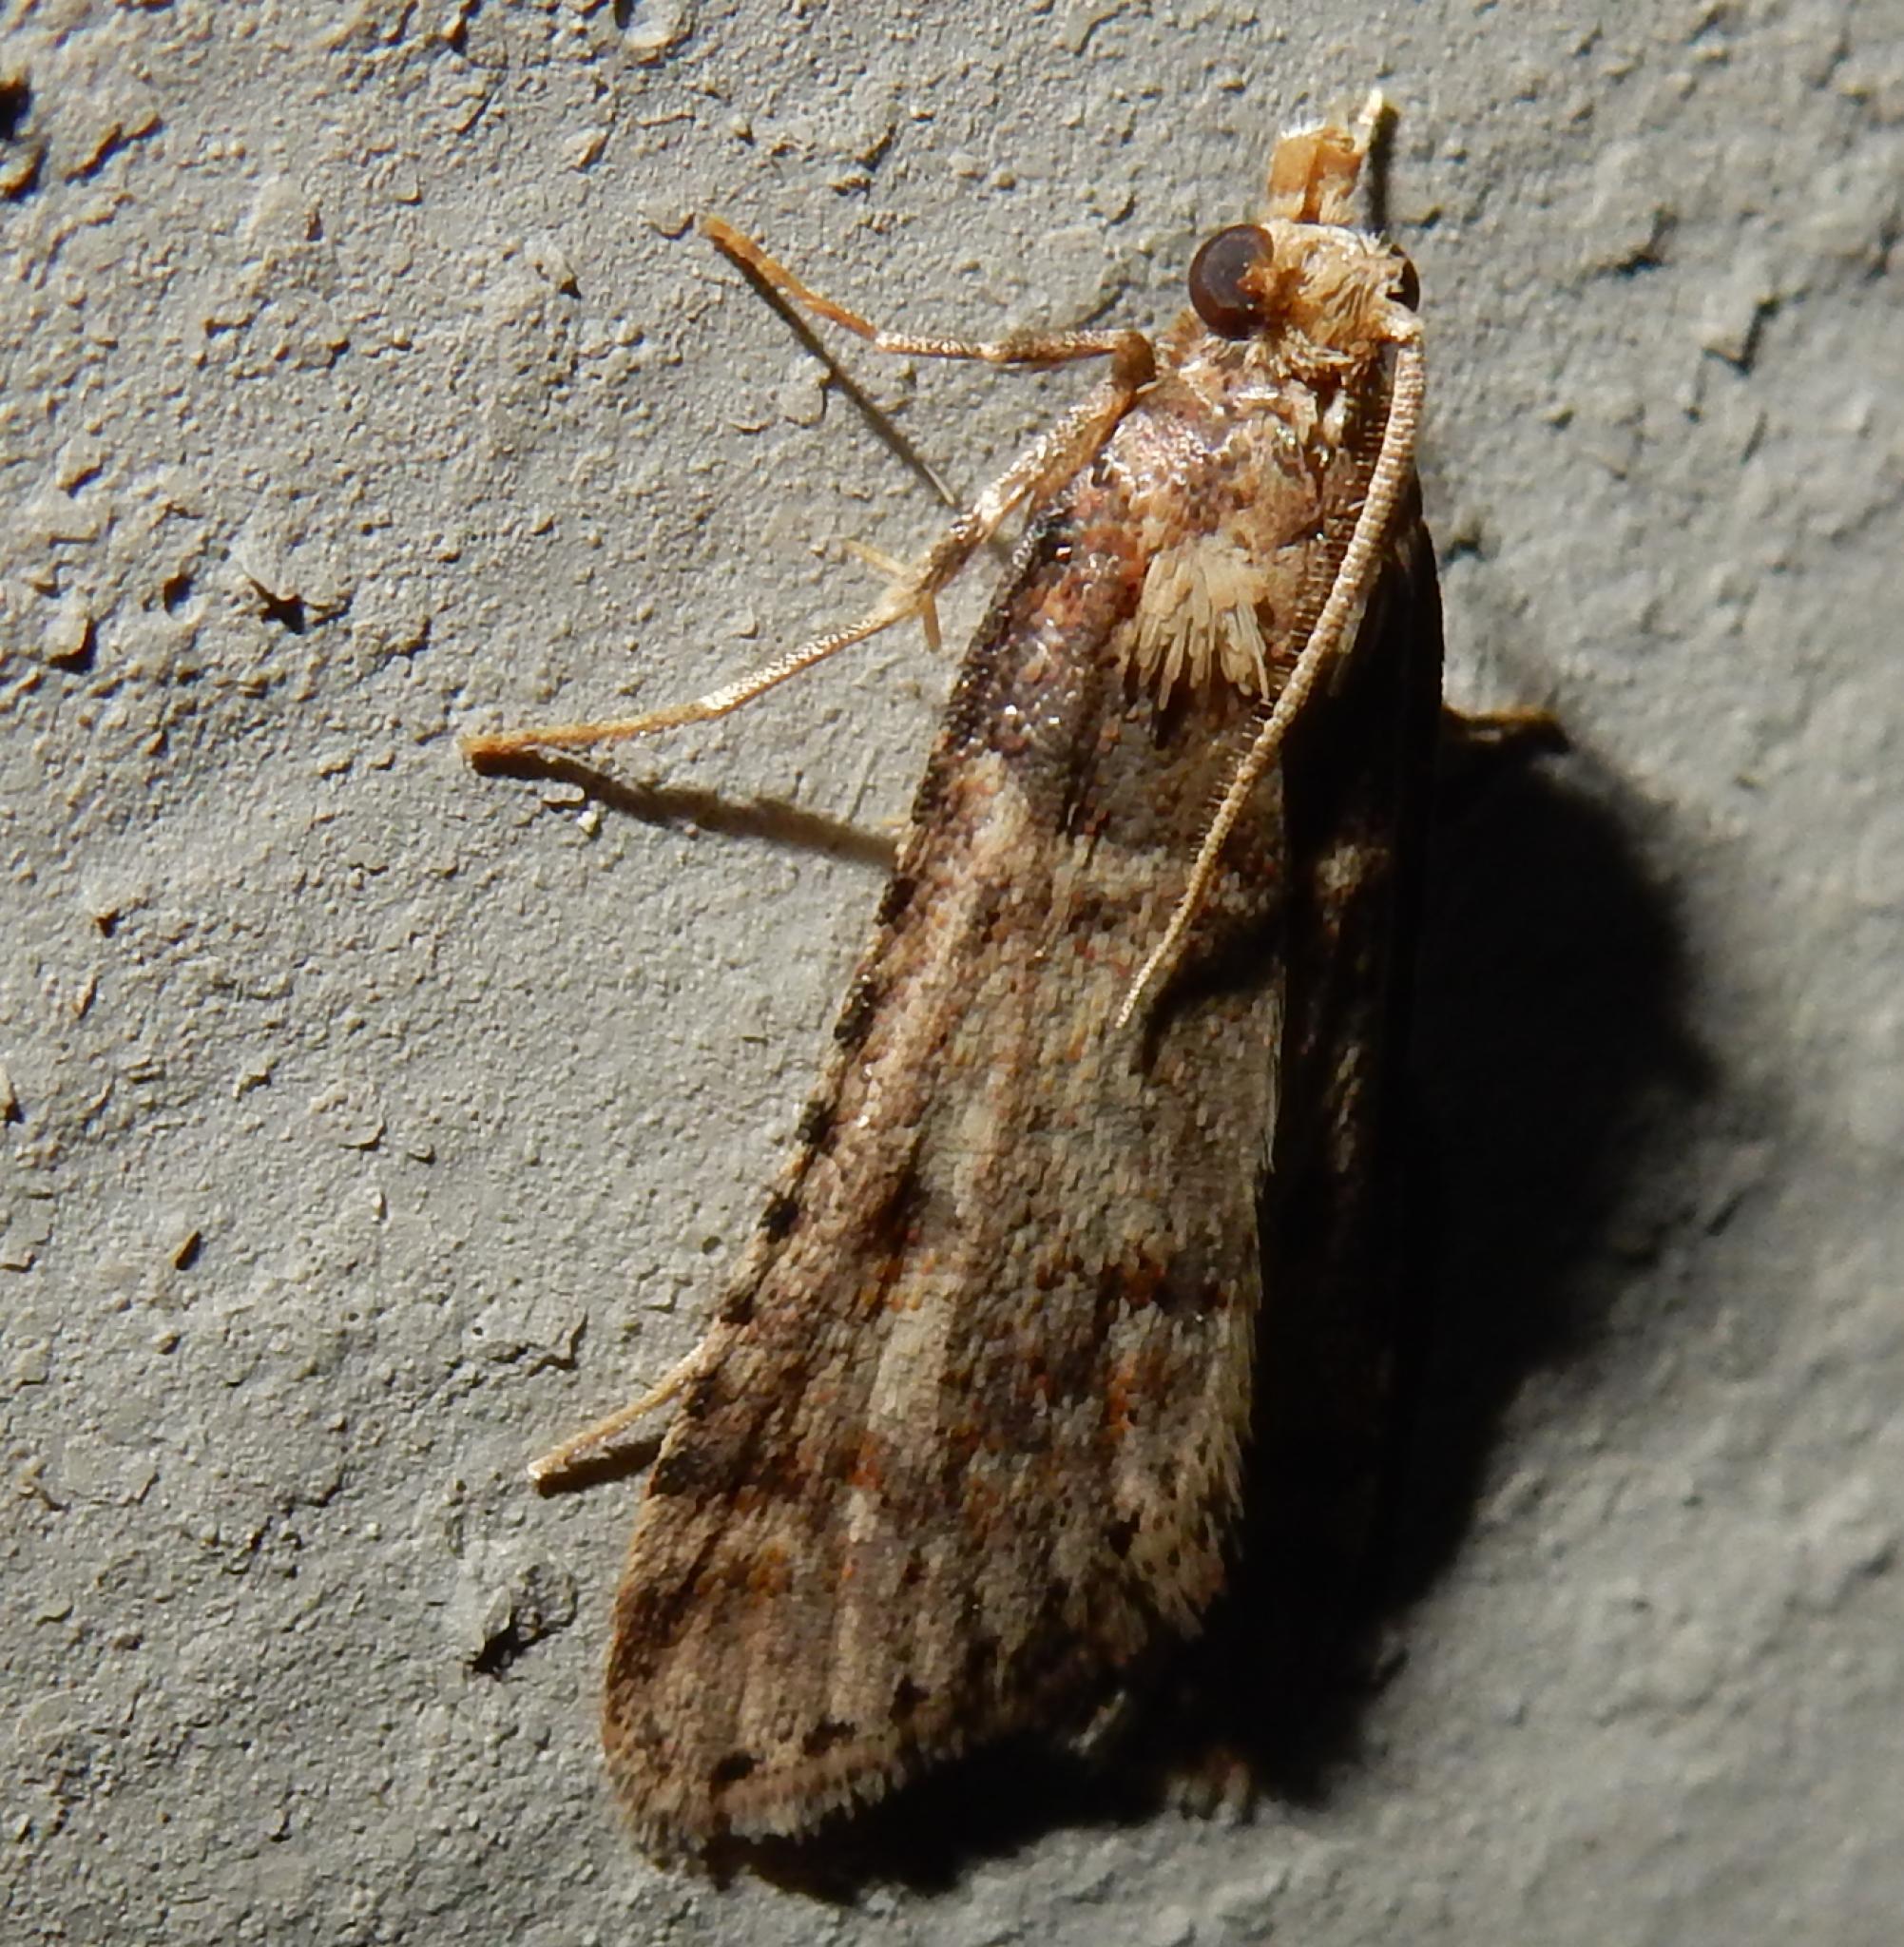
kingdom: Animalia
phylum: Arthropoda
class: Insecta
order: Lepidoptera
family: Pyralidae
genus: Philotis
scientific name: Philotis basalis
